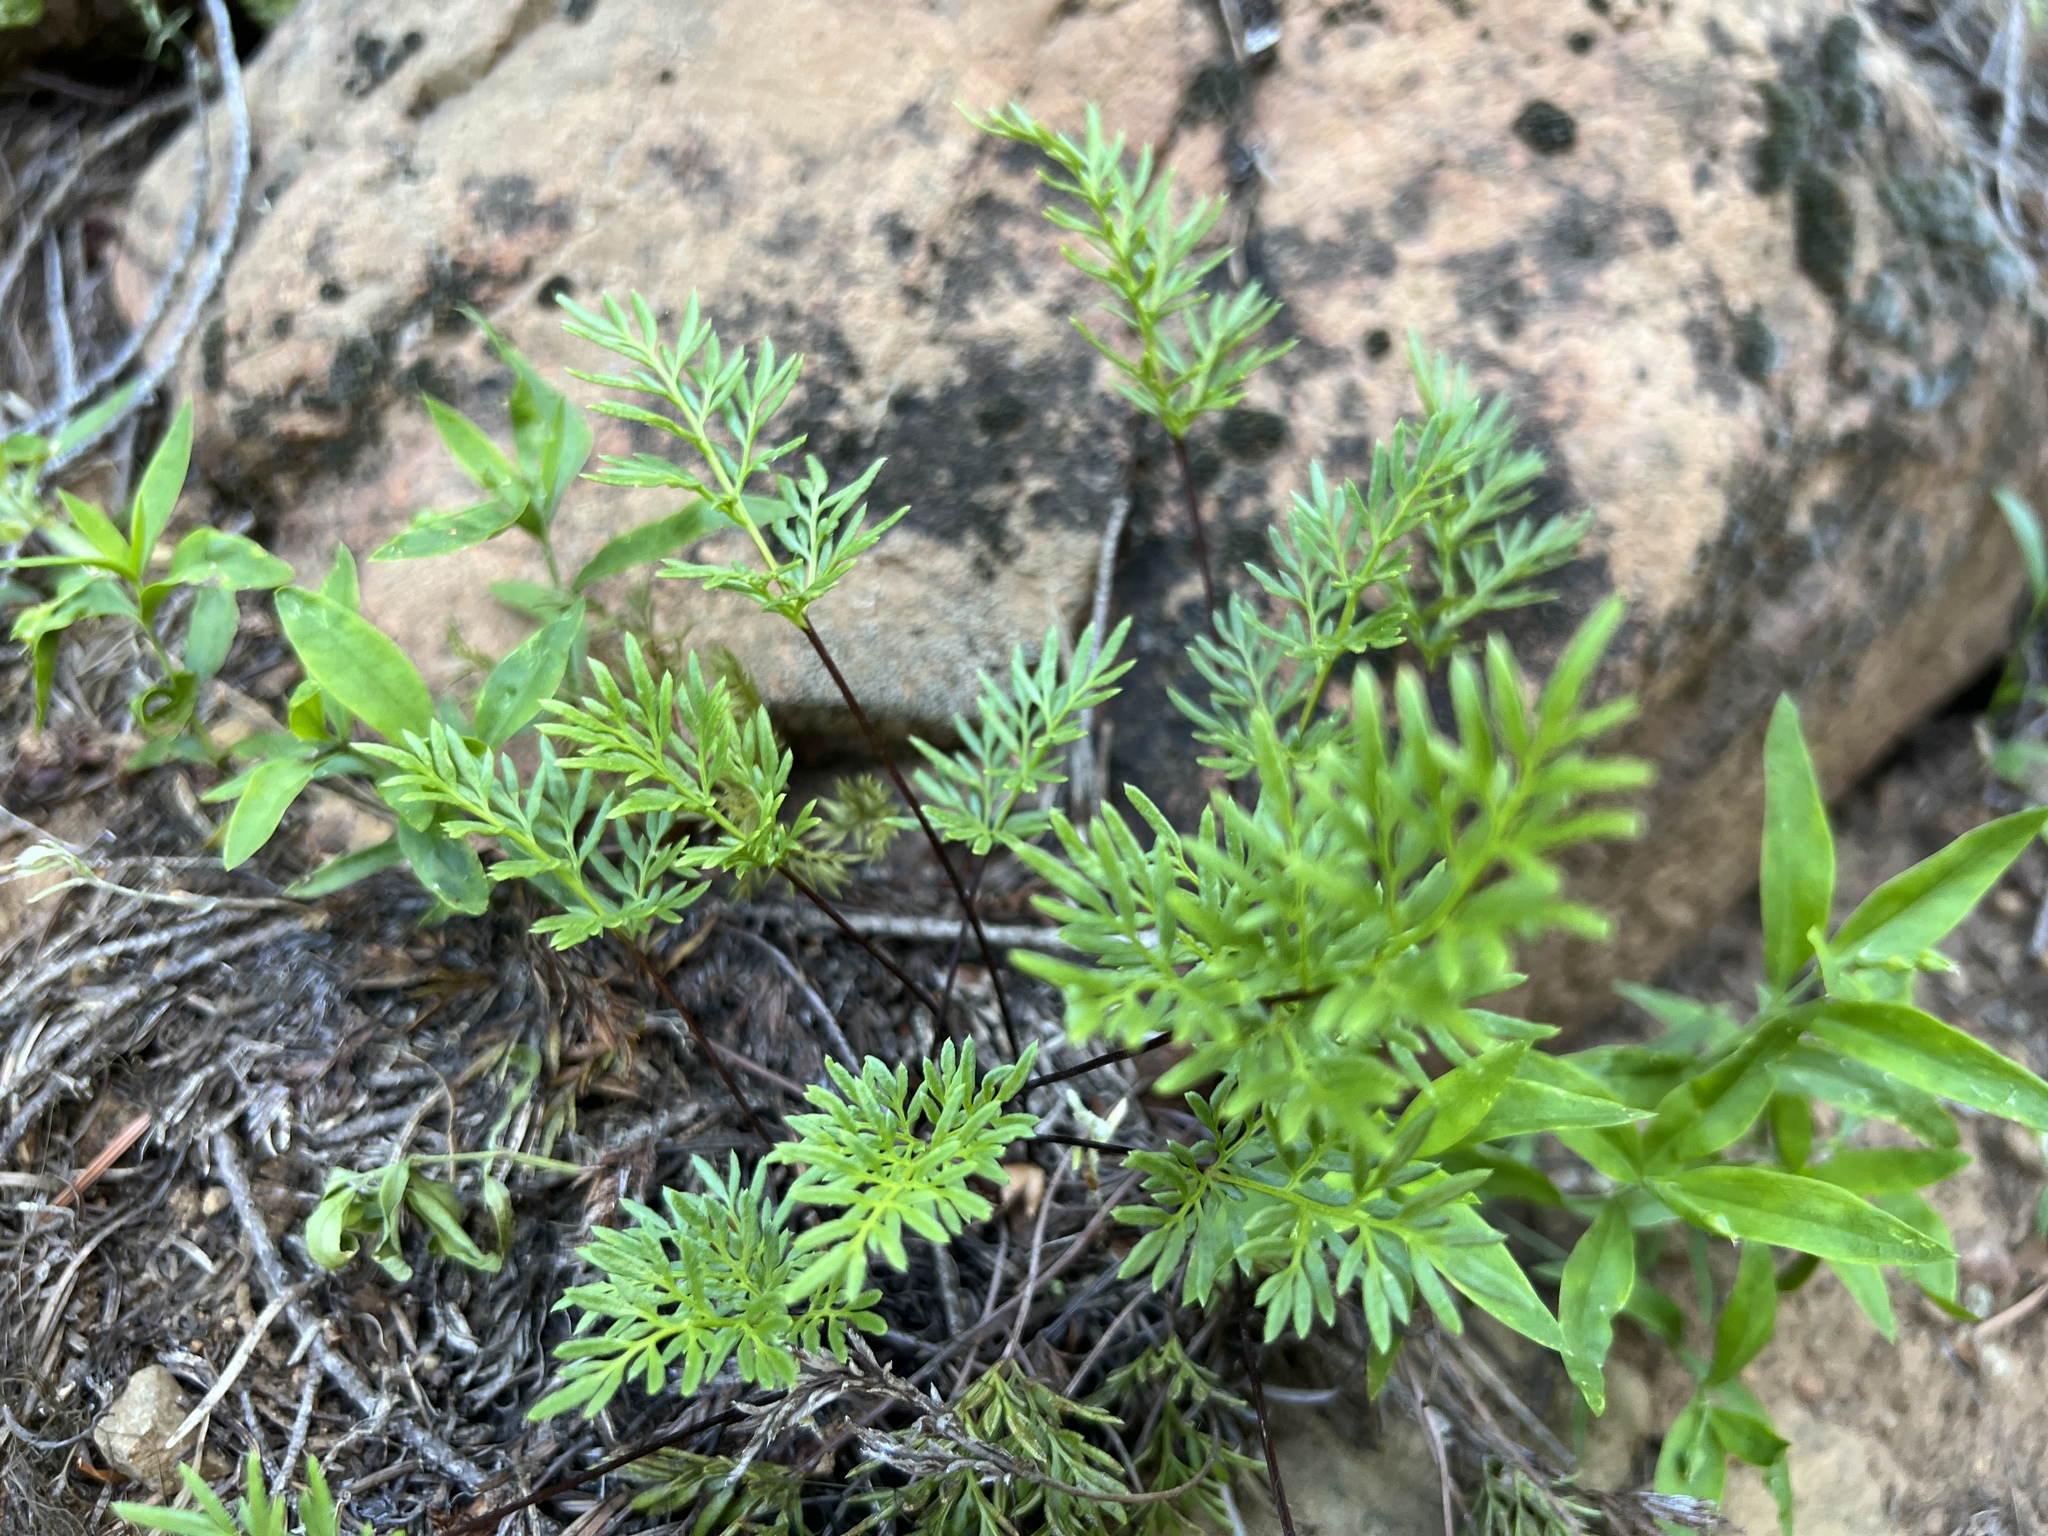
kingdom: Plantae
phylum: Tracheophyta
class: Polypodiopsida
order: Polypodiales
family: Pteridaceae
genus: Aspidotis
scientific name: Aspidotis densa
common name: Indian's dream
